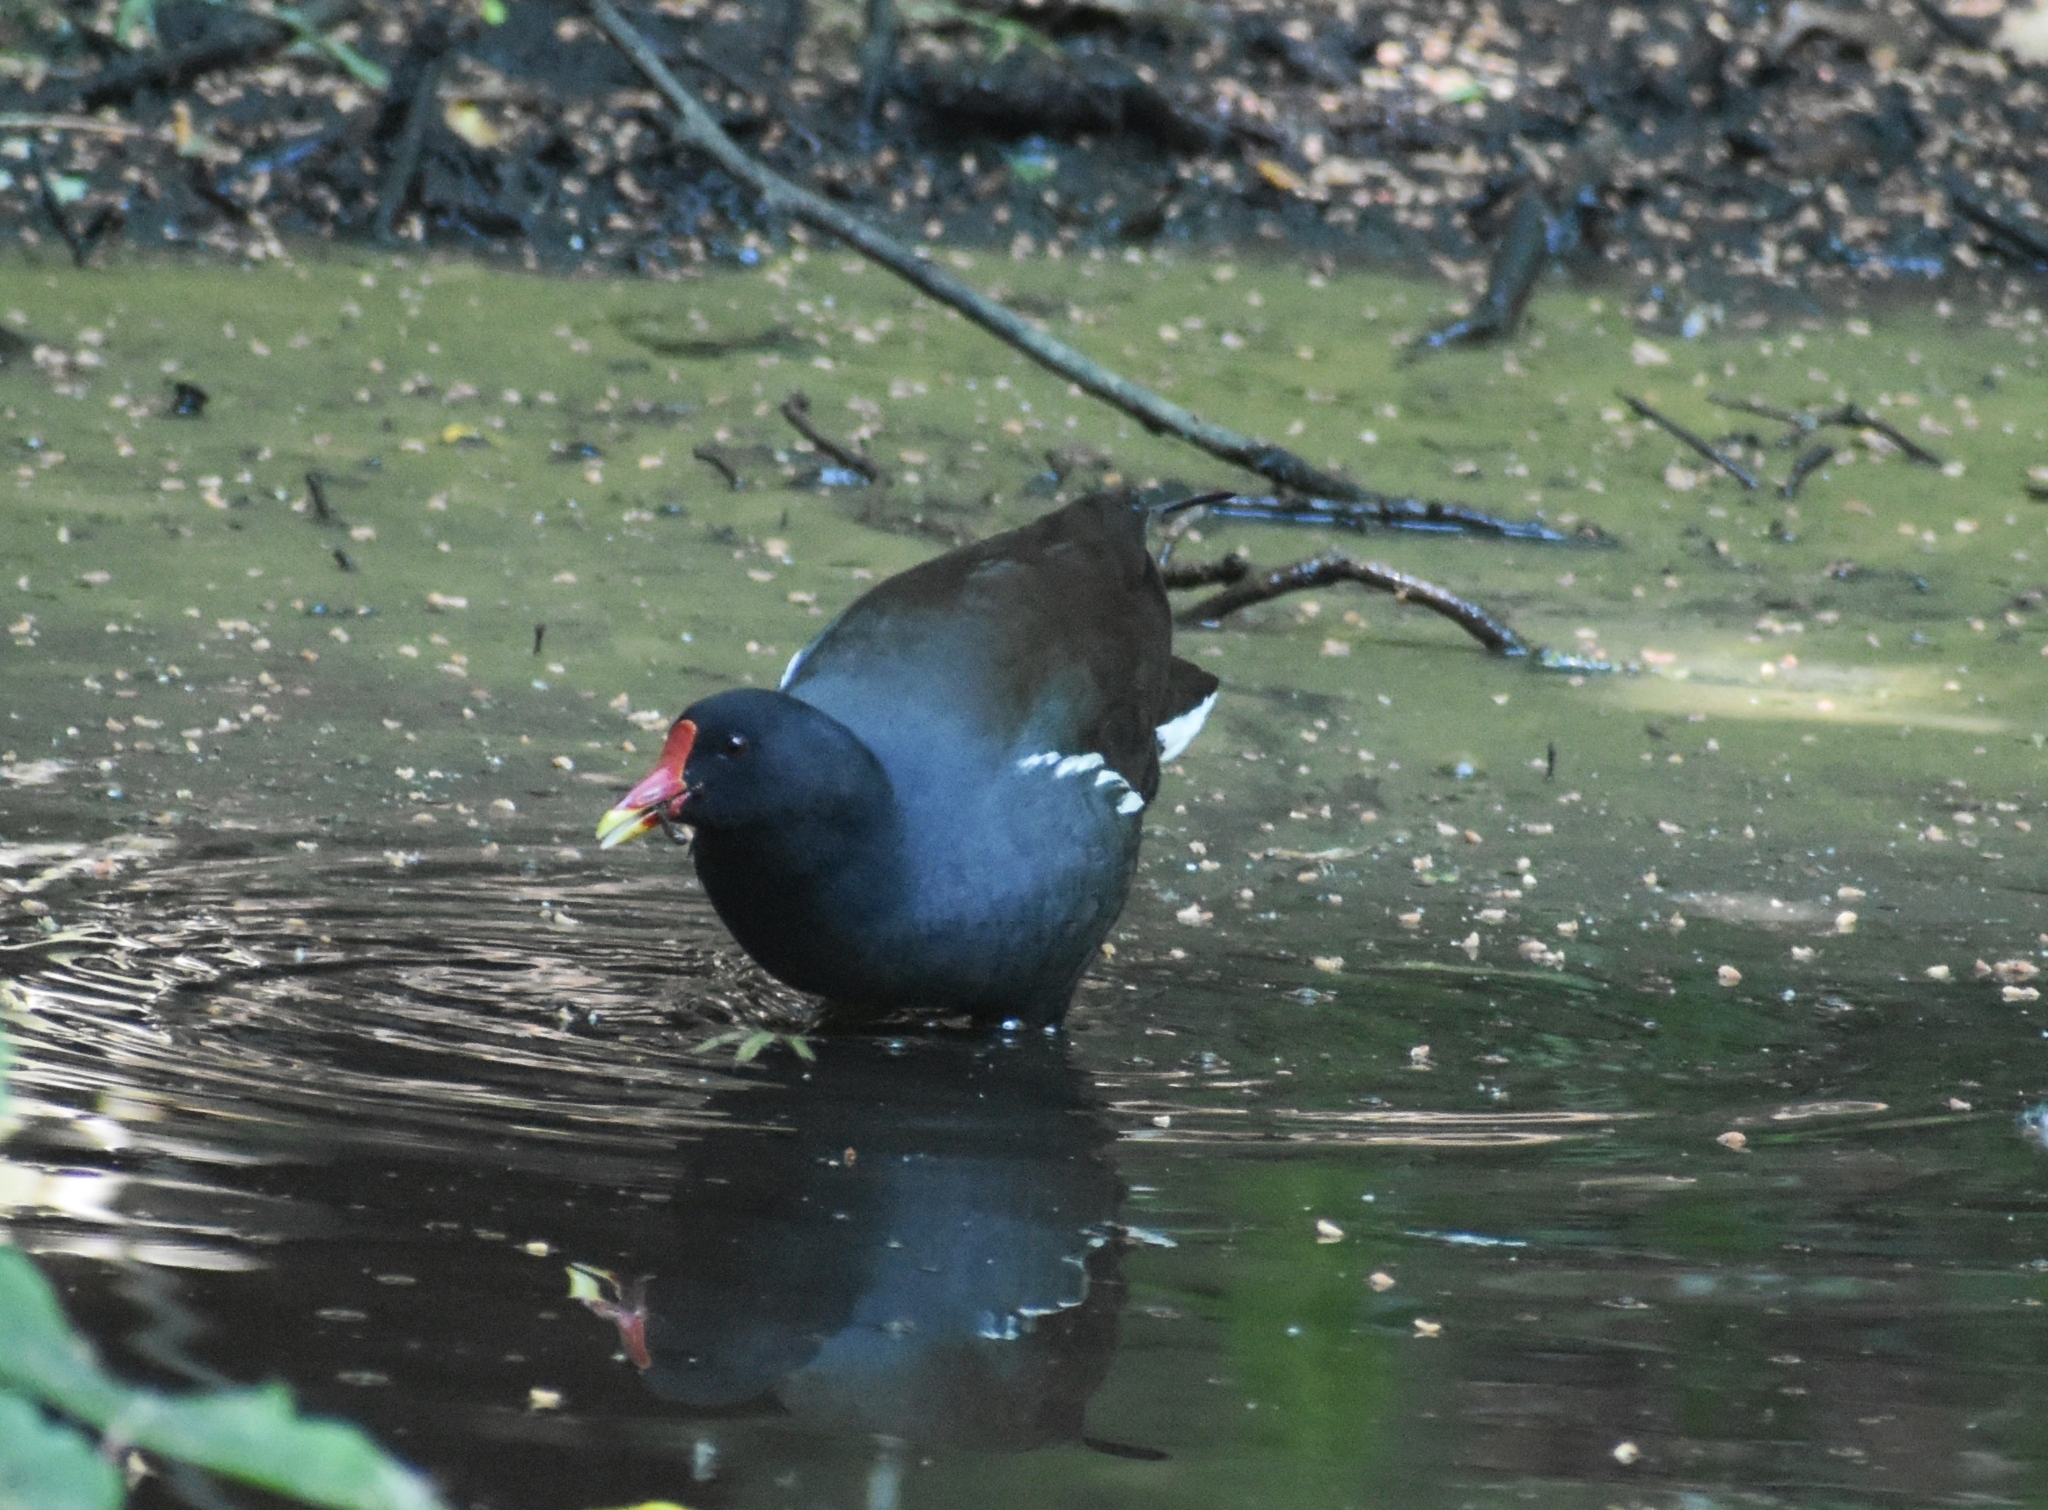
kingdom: Animalia
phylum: Chordata
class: Aves
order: Gruiformes
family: Rallidae
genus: Gallinula
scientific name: Gallinula chloropus
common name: Common moorhen
